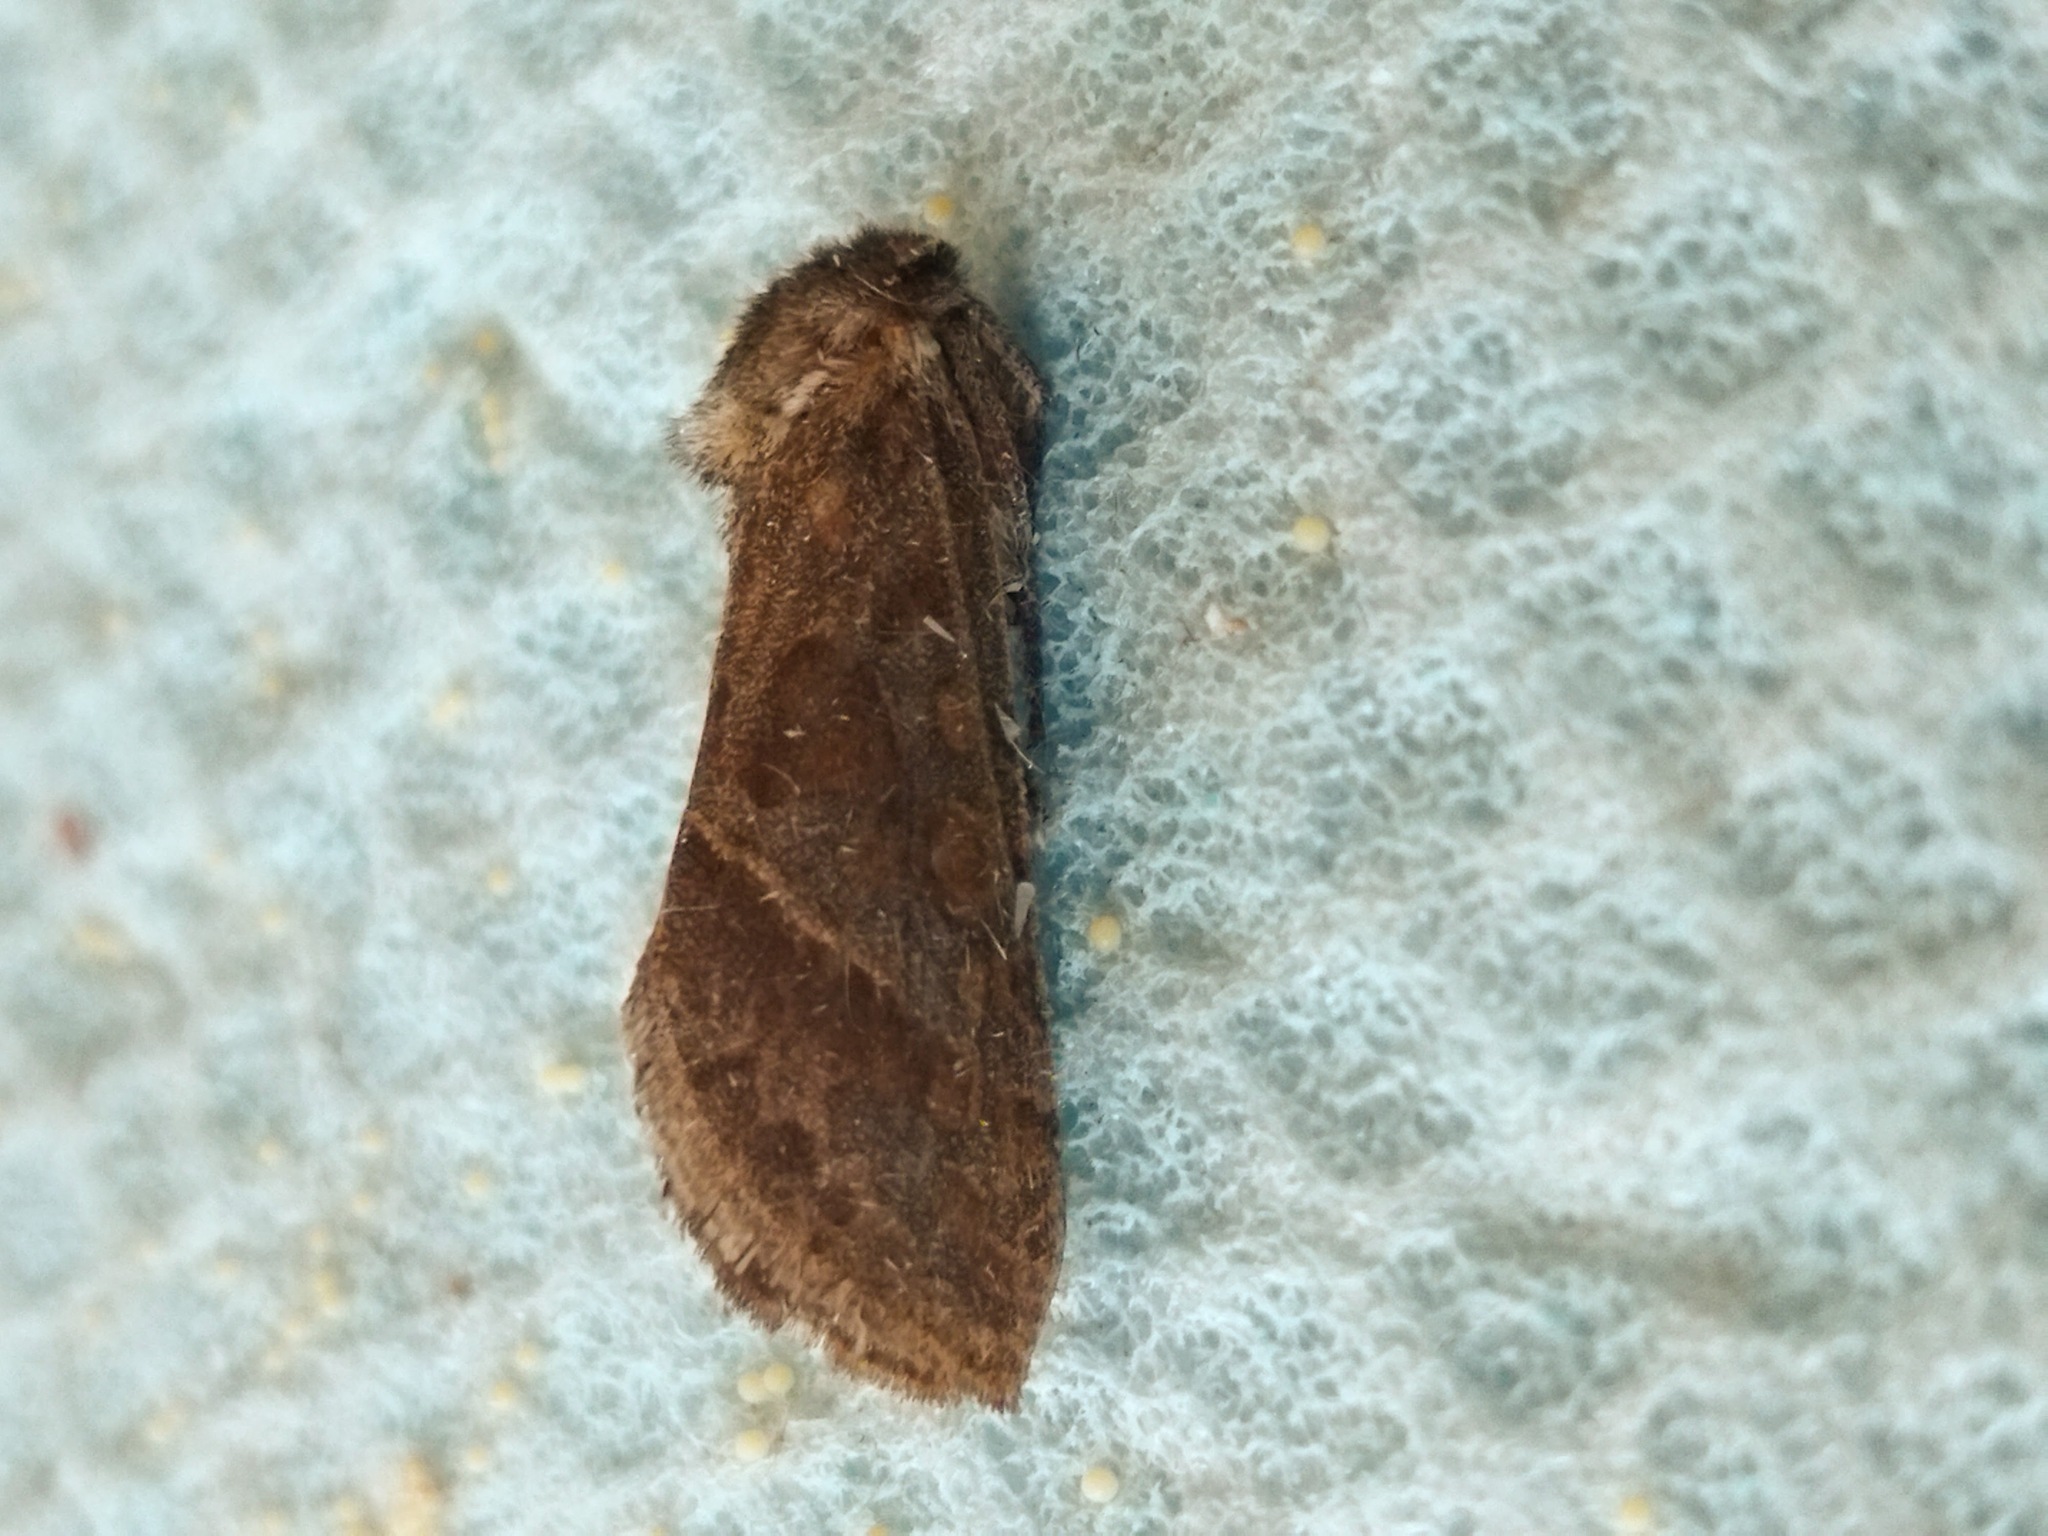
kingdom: Animalia
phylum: Arthropoda
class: Insecta
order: Lepidoptera
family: Hepialidae
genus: Triodia
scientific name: Triodia amasinus
